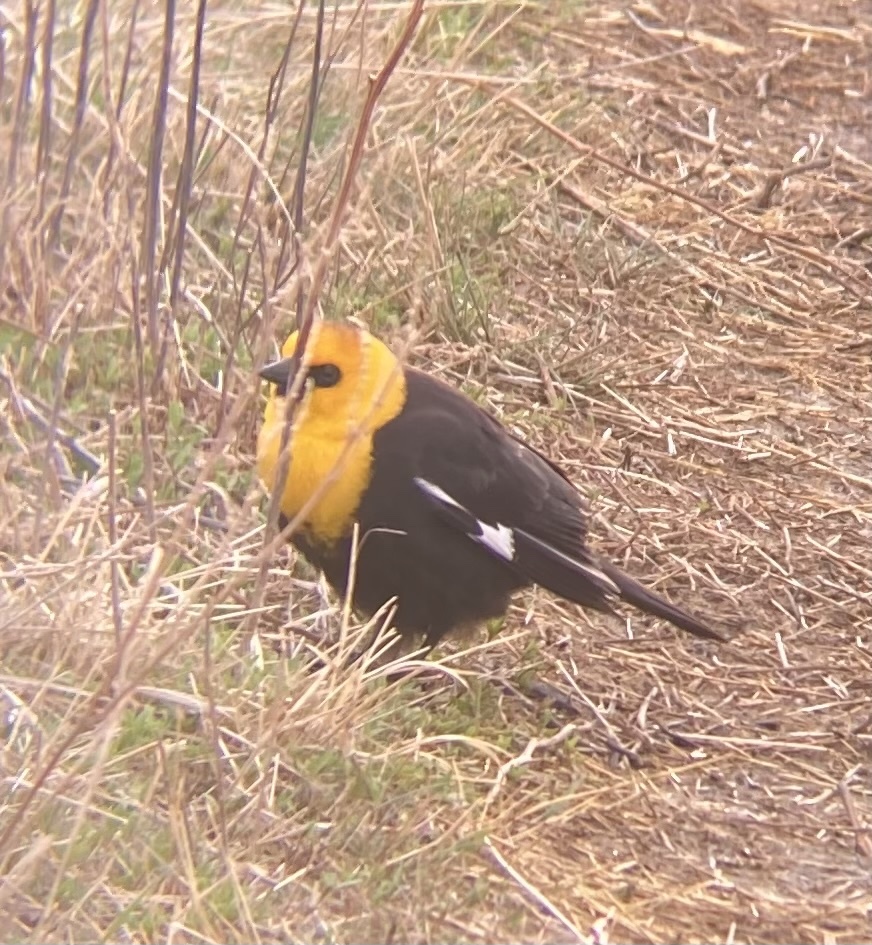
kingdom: Animalia
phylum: Chordata
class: Aves
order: Passeriformes
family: Icteridae
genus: Xanthocephalus
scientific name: Xanthocephalus xanthocephalus
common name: Yellow-headed blackbird
